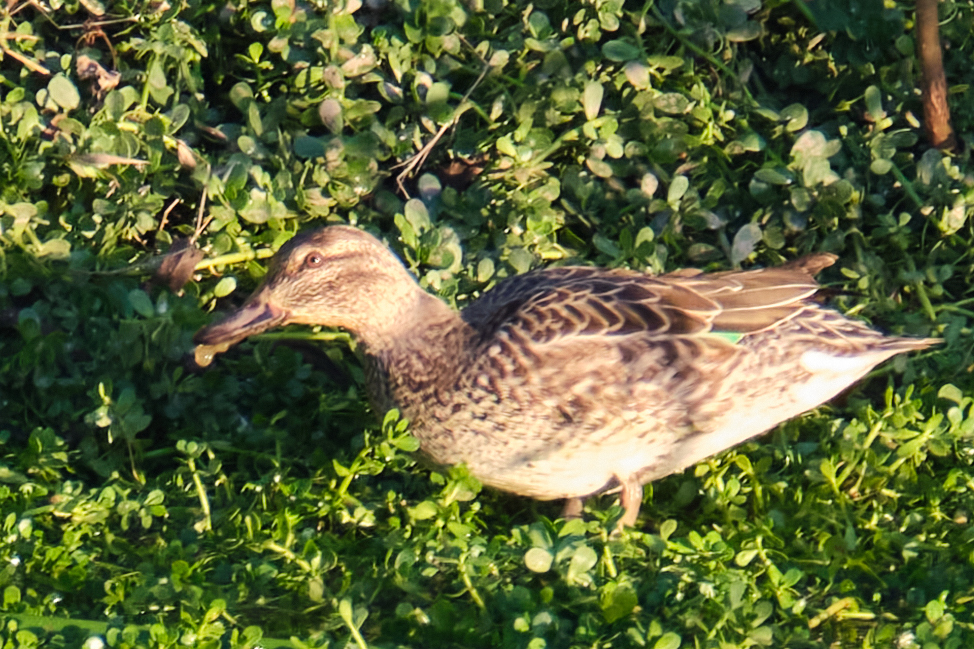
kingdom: Animalia
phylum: Chordata
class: Aves
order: Anseriformes
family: Anatidae
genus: Anas
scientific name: Anas crecca
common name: Eurasian teal
